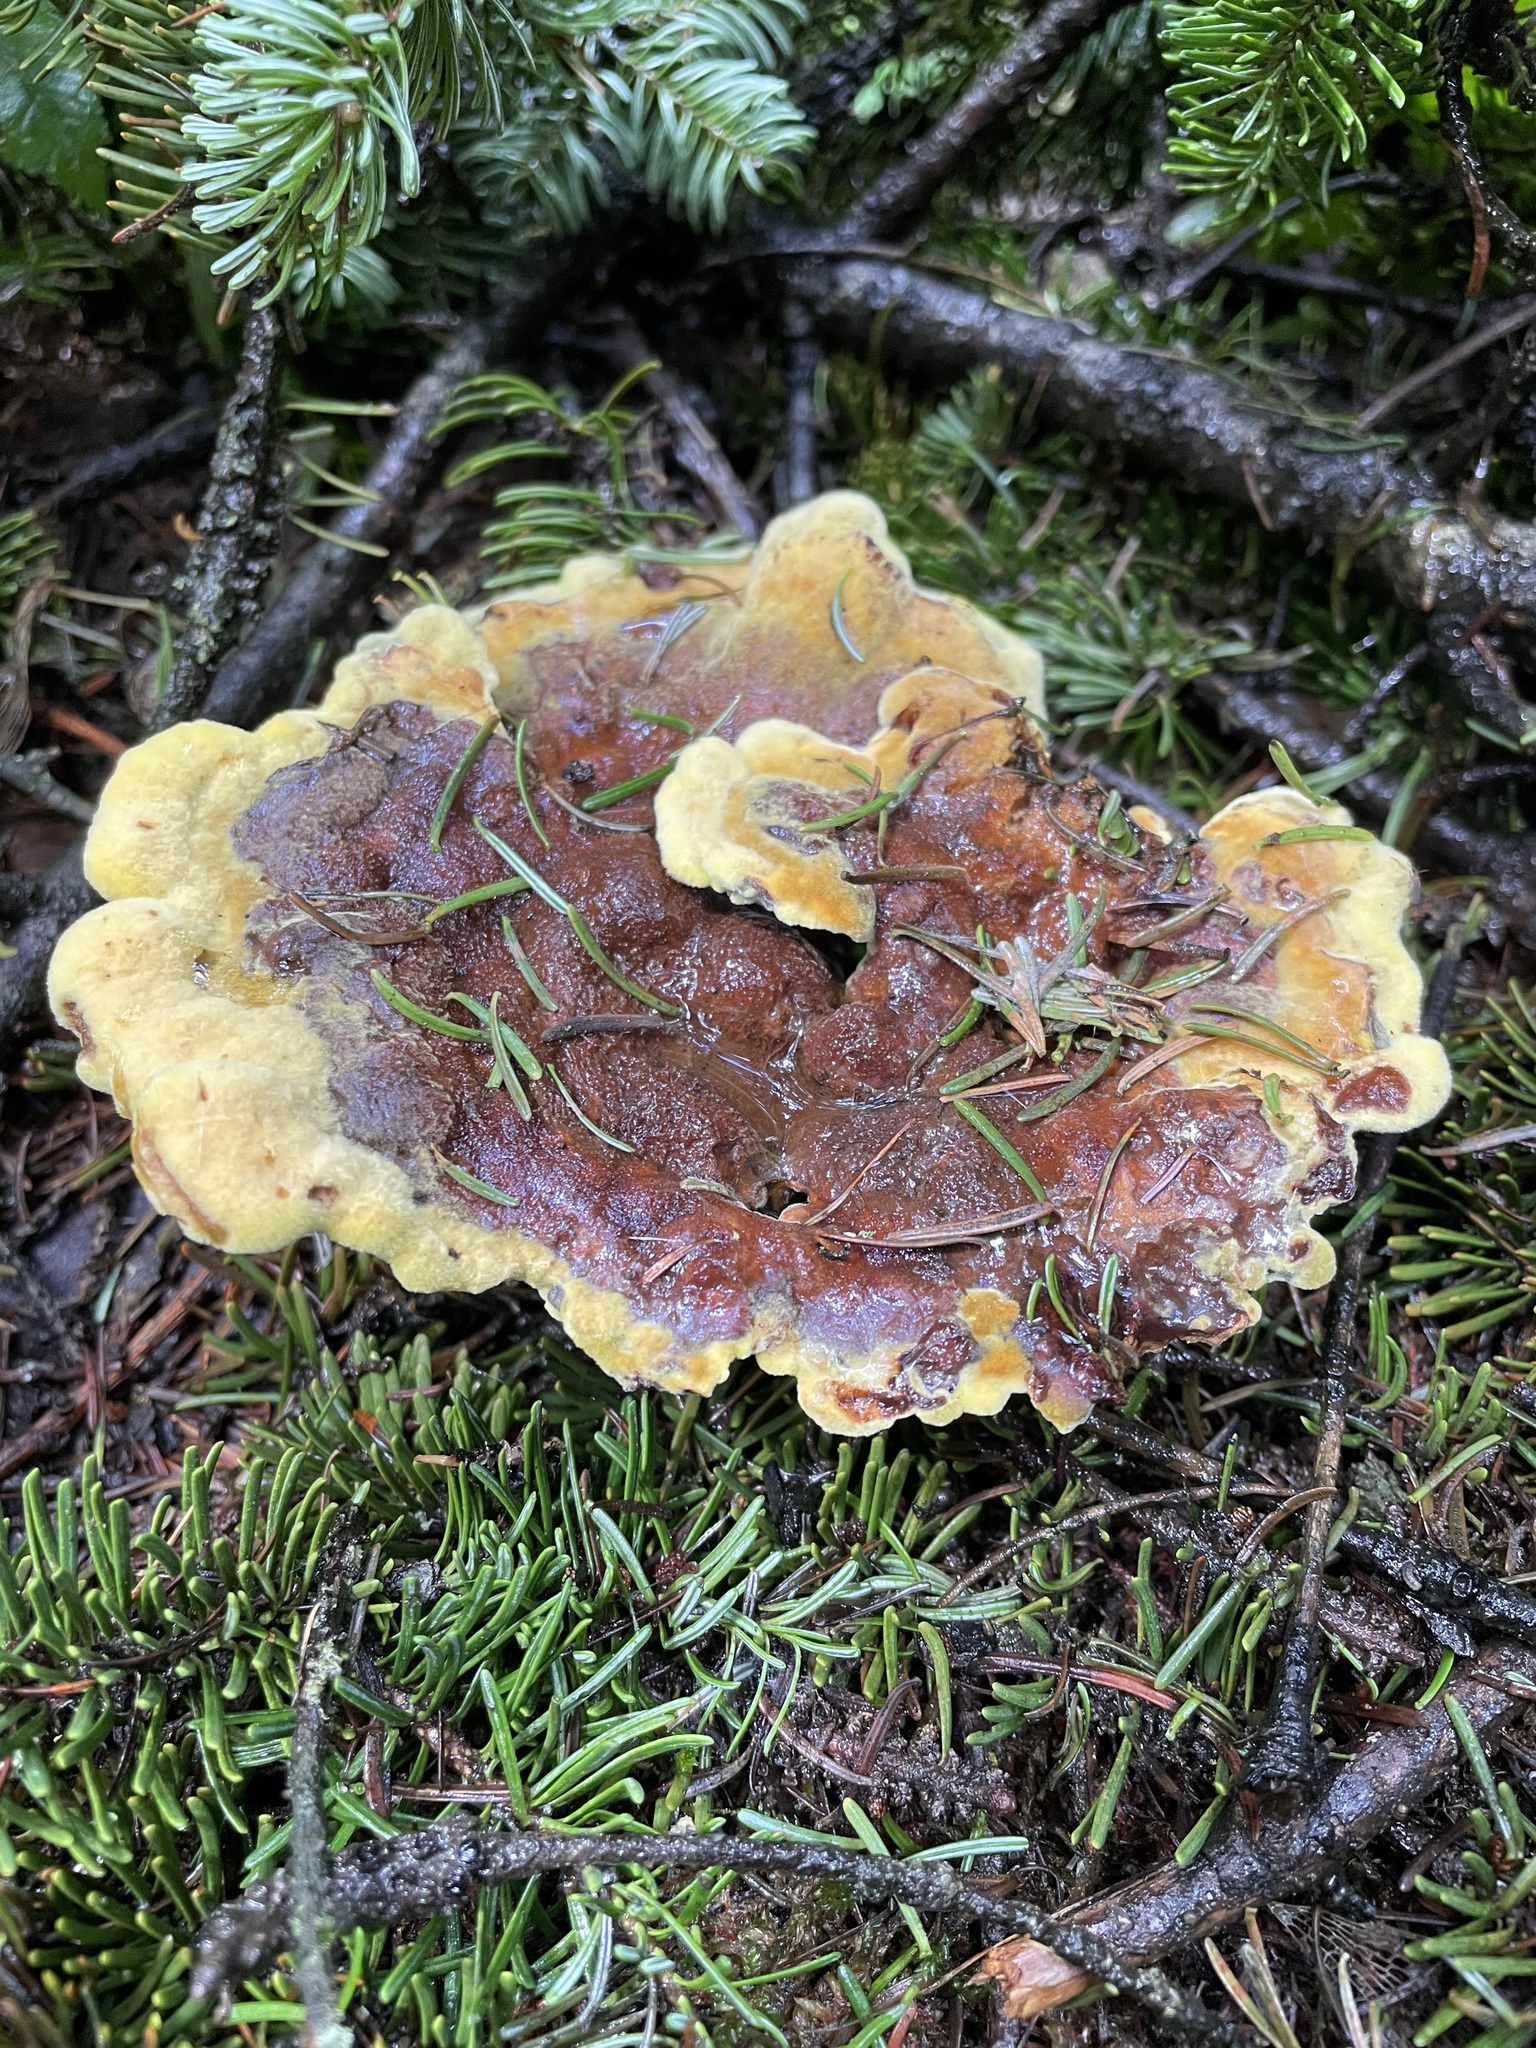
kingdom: Fungi
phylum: Basidiomycota
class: Agaricomycetes
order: Polyporales
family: Laetiporaceae
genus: Phaeolus
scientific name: Phaeolus schweinitzii
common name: Dyer's mazegill
